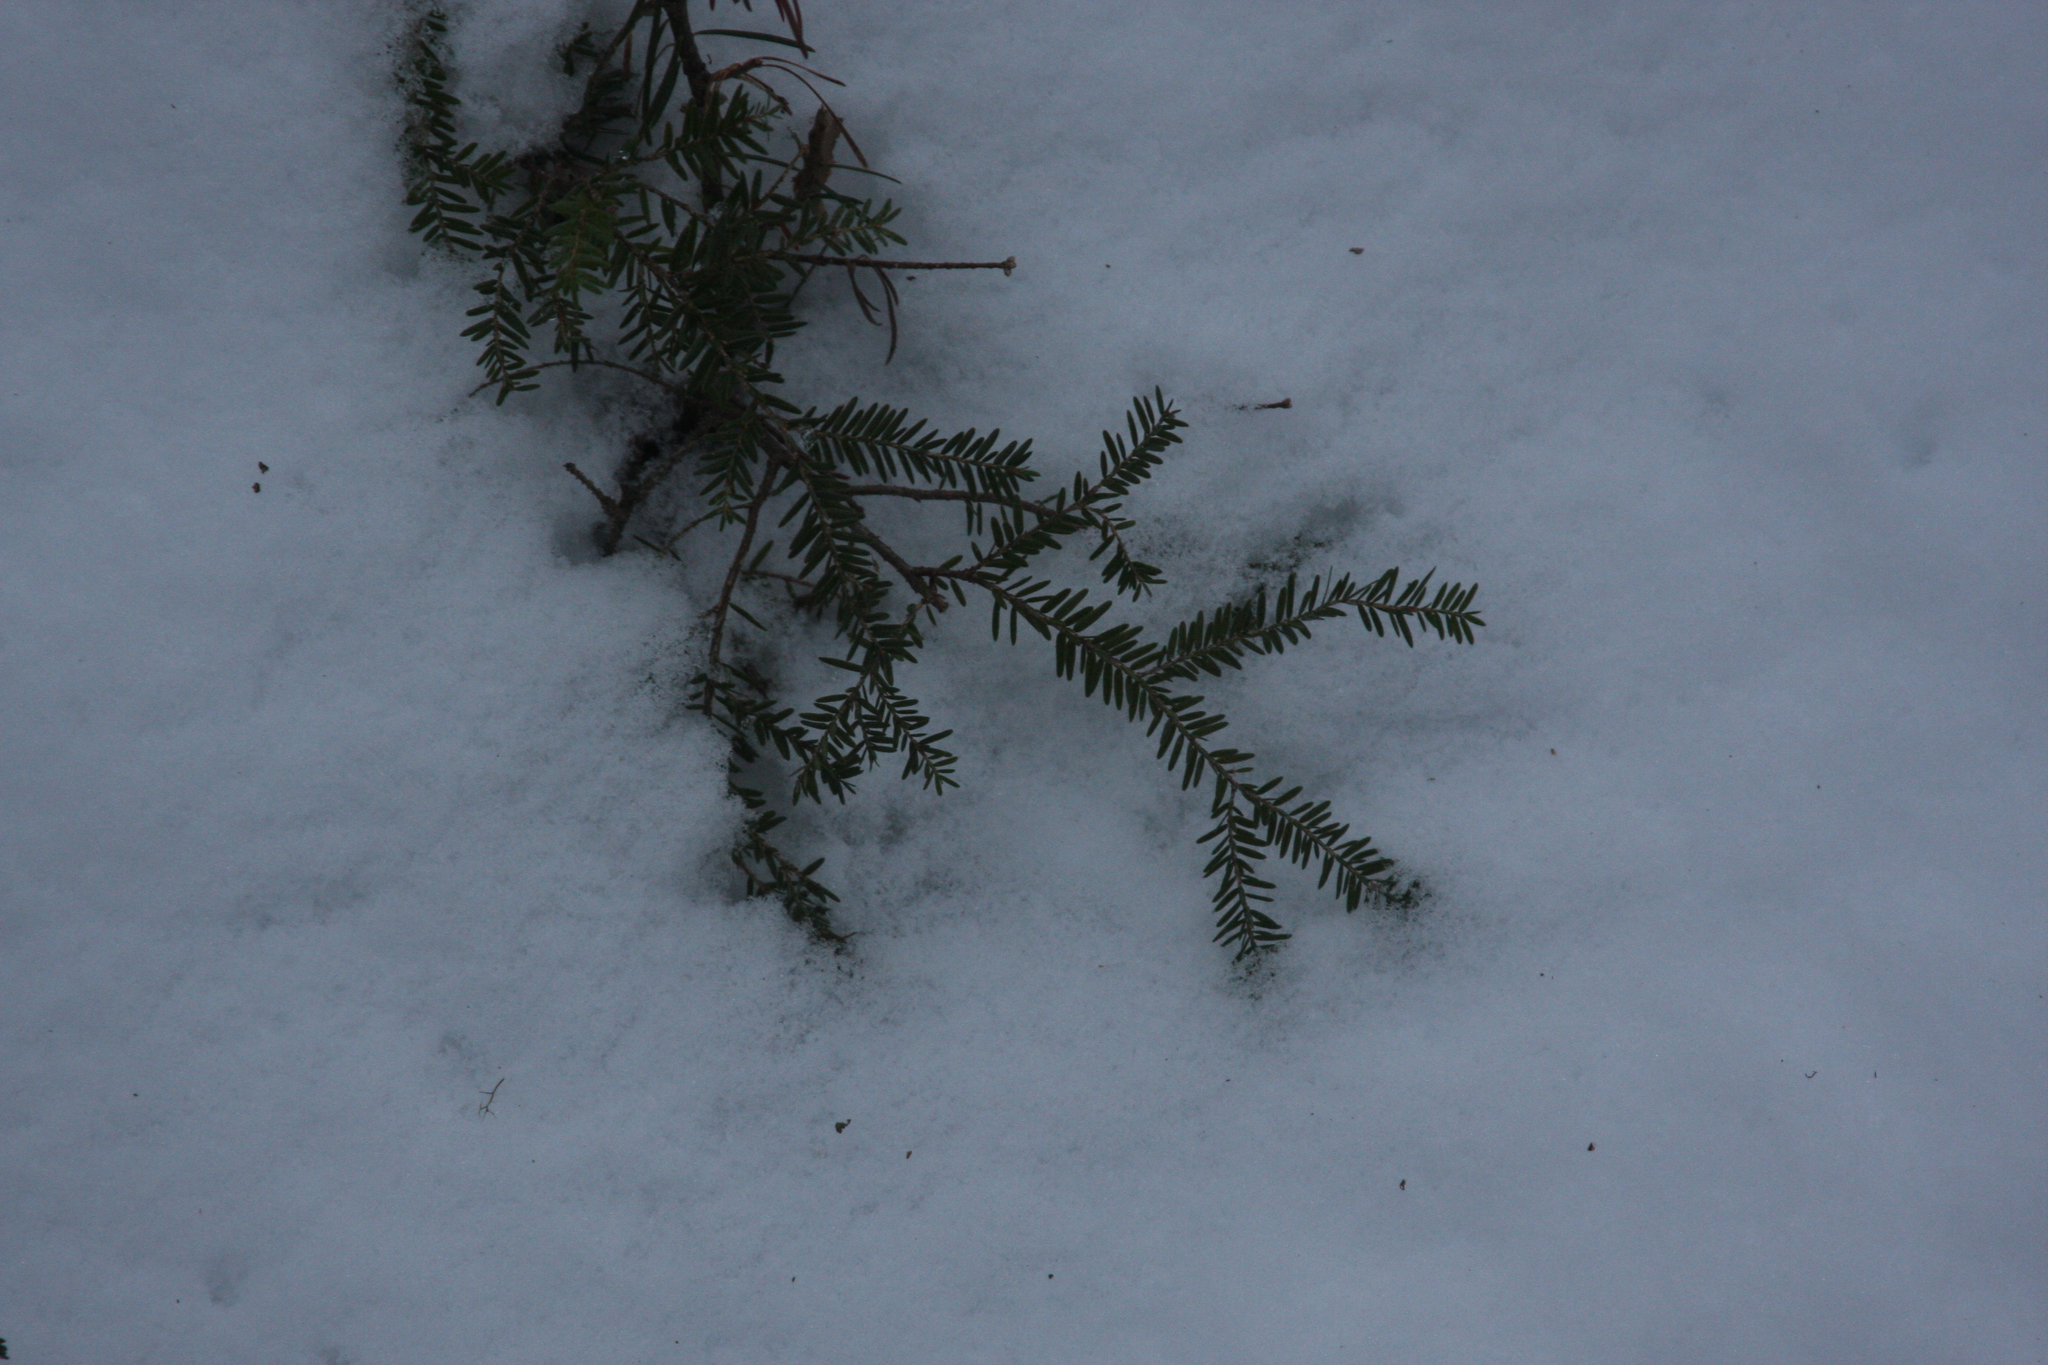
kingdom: Plantae
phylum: Tracheophyta
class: Pinopsida
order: Pinales
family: Pinaceae
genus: Tsuga
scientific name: Tsuga canadensis
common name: Eastern hemlock
